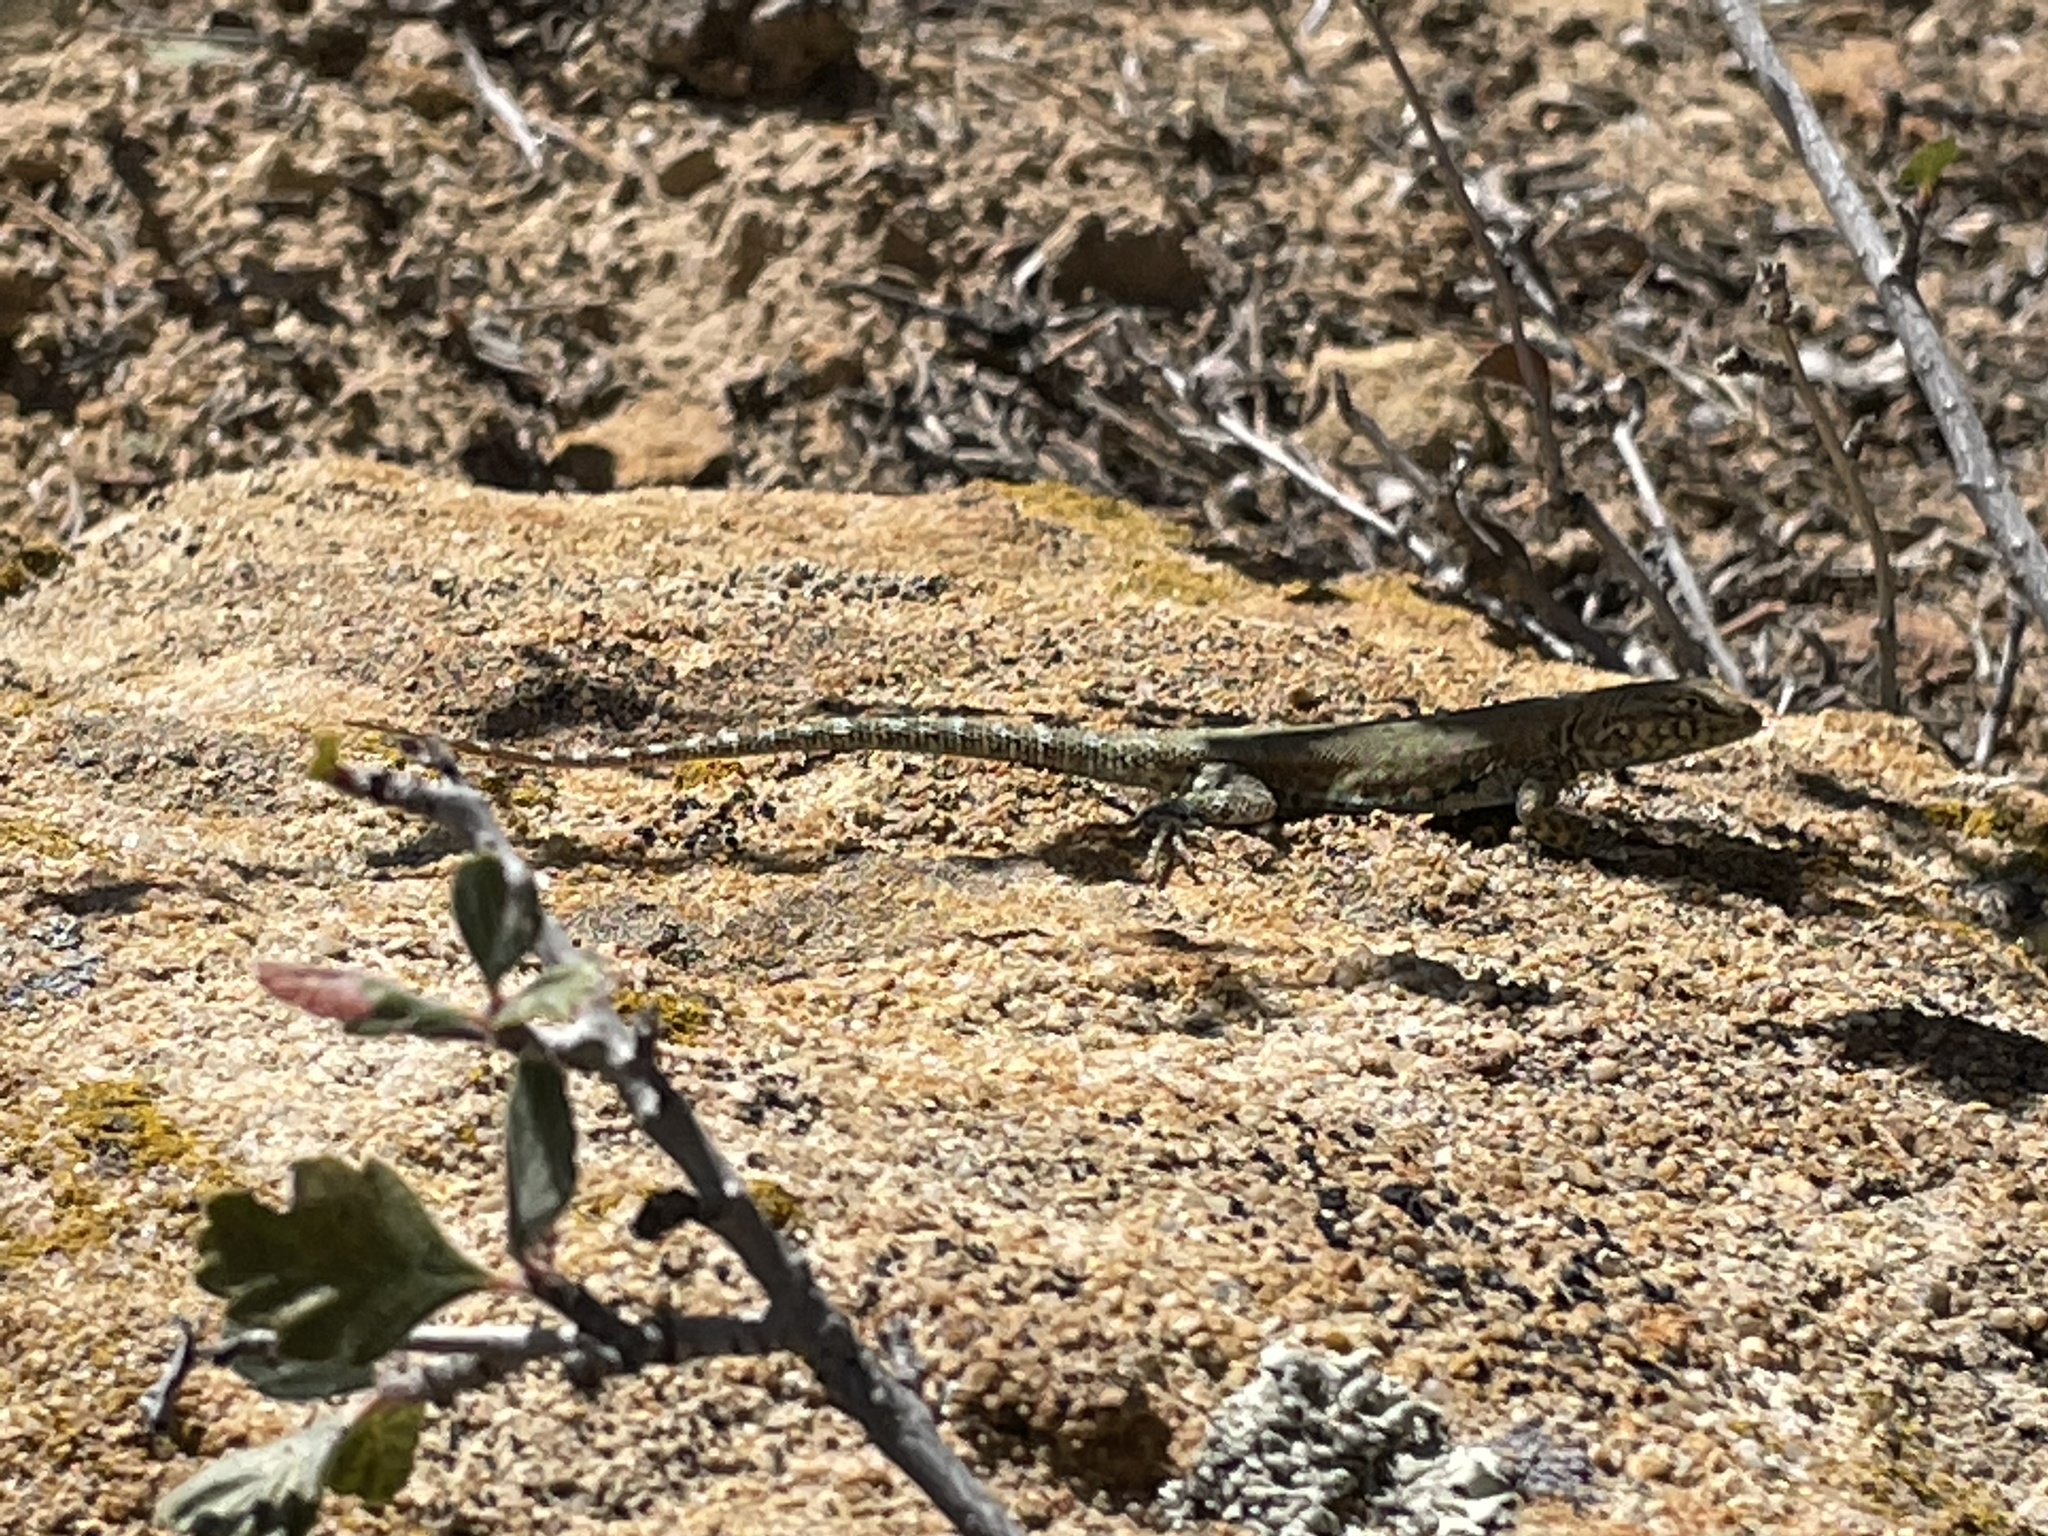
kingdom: Animalia
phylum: Chordata
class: Squamata
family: Phrynosomatidae
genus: Uta
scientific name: Uta stansburiana
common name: Side-blotched lizard
